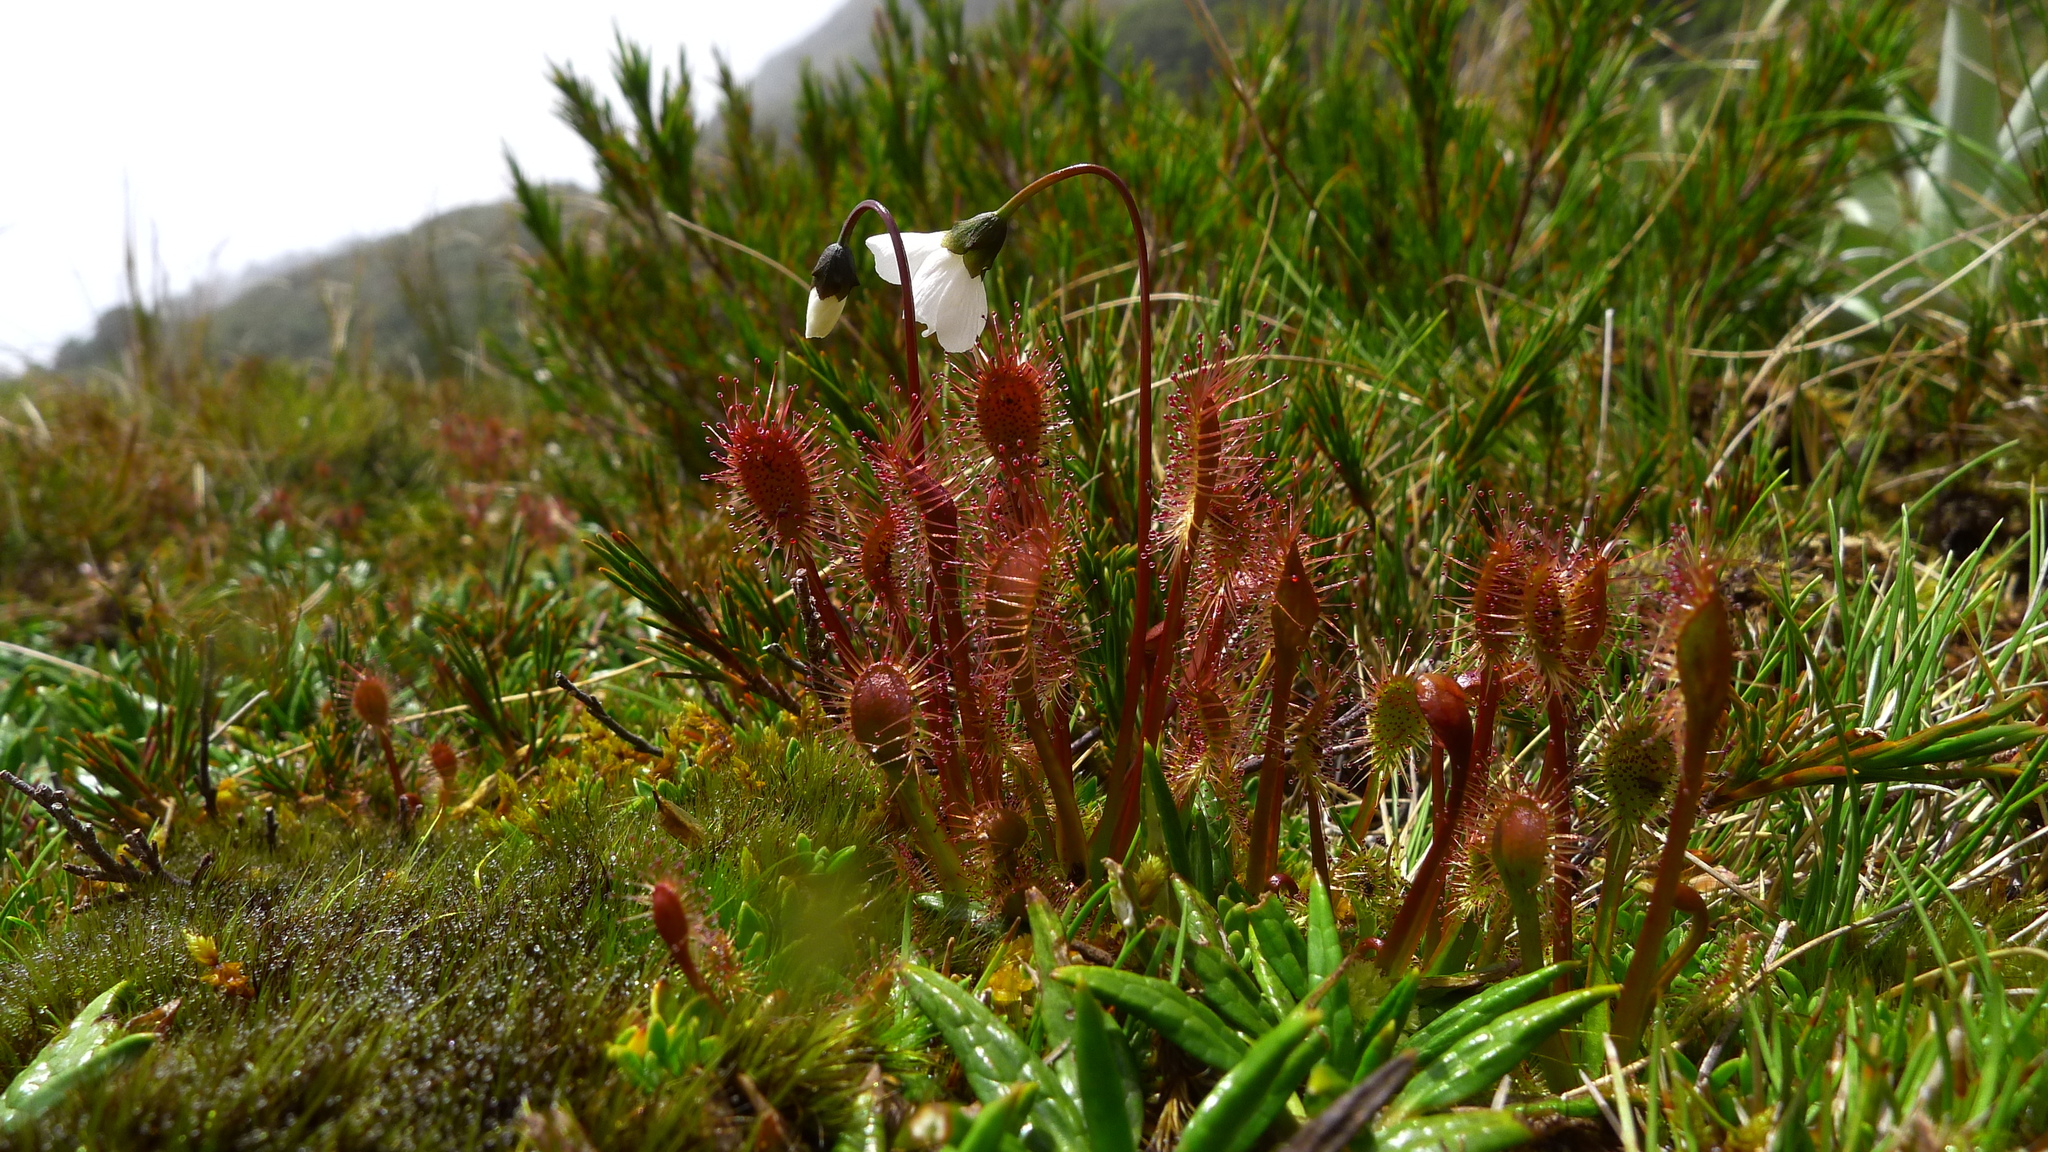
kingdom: Plantae
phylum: Tracheophyta
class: Magnoliopsida
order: Caryophyllales
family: Droseraceae
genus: Drosera
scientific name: Drosera stenopetala
